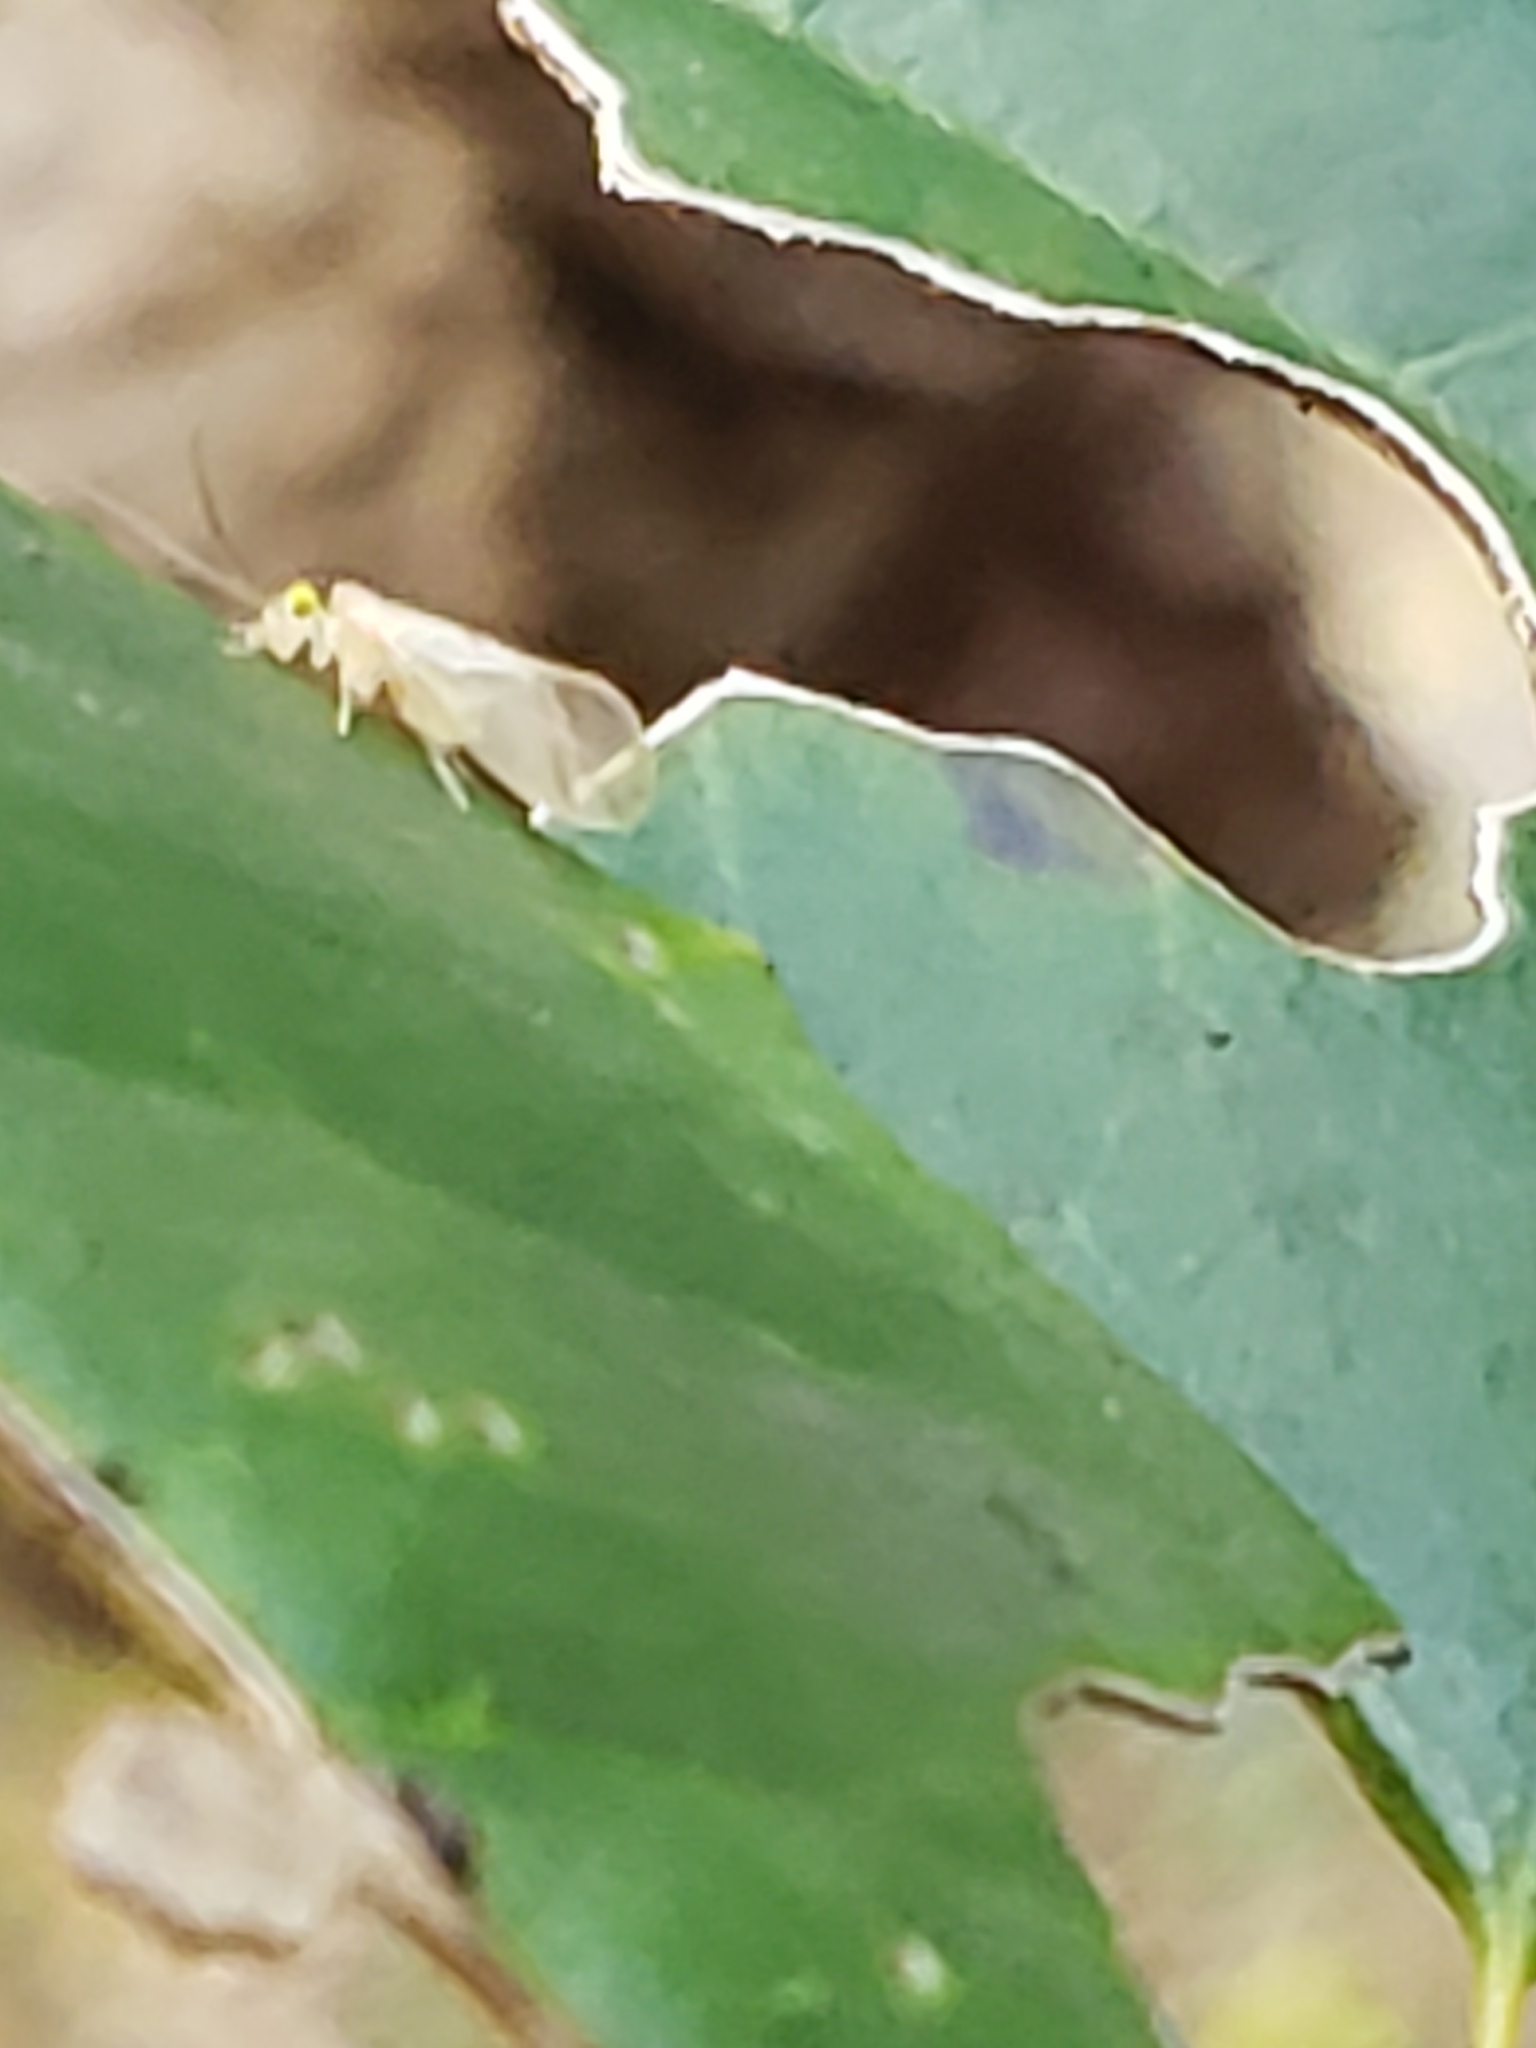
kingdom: Animalia
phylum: Arthropoda
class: Insecta
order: Psocodea
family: Paracaeciliidae
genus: Xanthocaecilius
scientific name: Xanthocaecilius sommermanae
